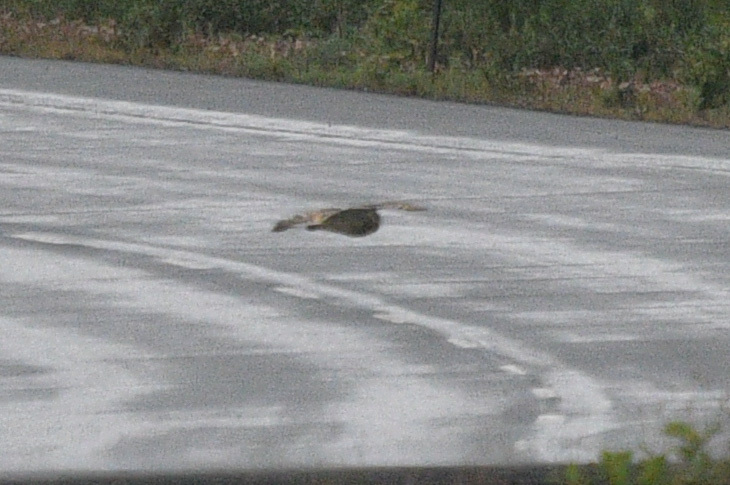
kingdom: Animalia
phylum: Chordata
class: Aves
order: Strigiformes
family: Strigidae
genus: Asio
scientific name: Asio flammeus
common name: Short-eared owl
